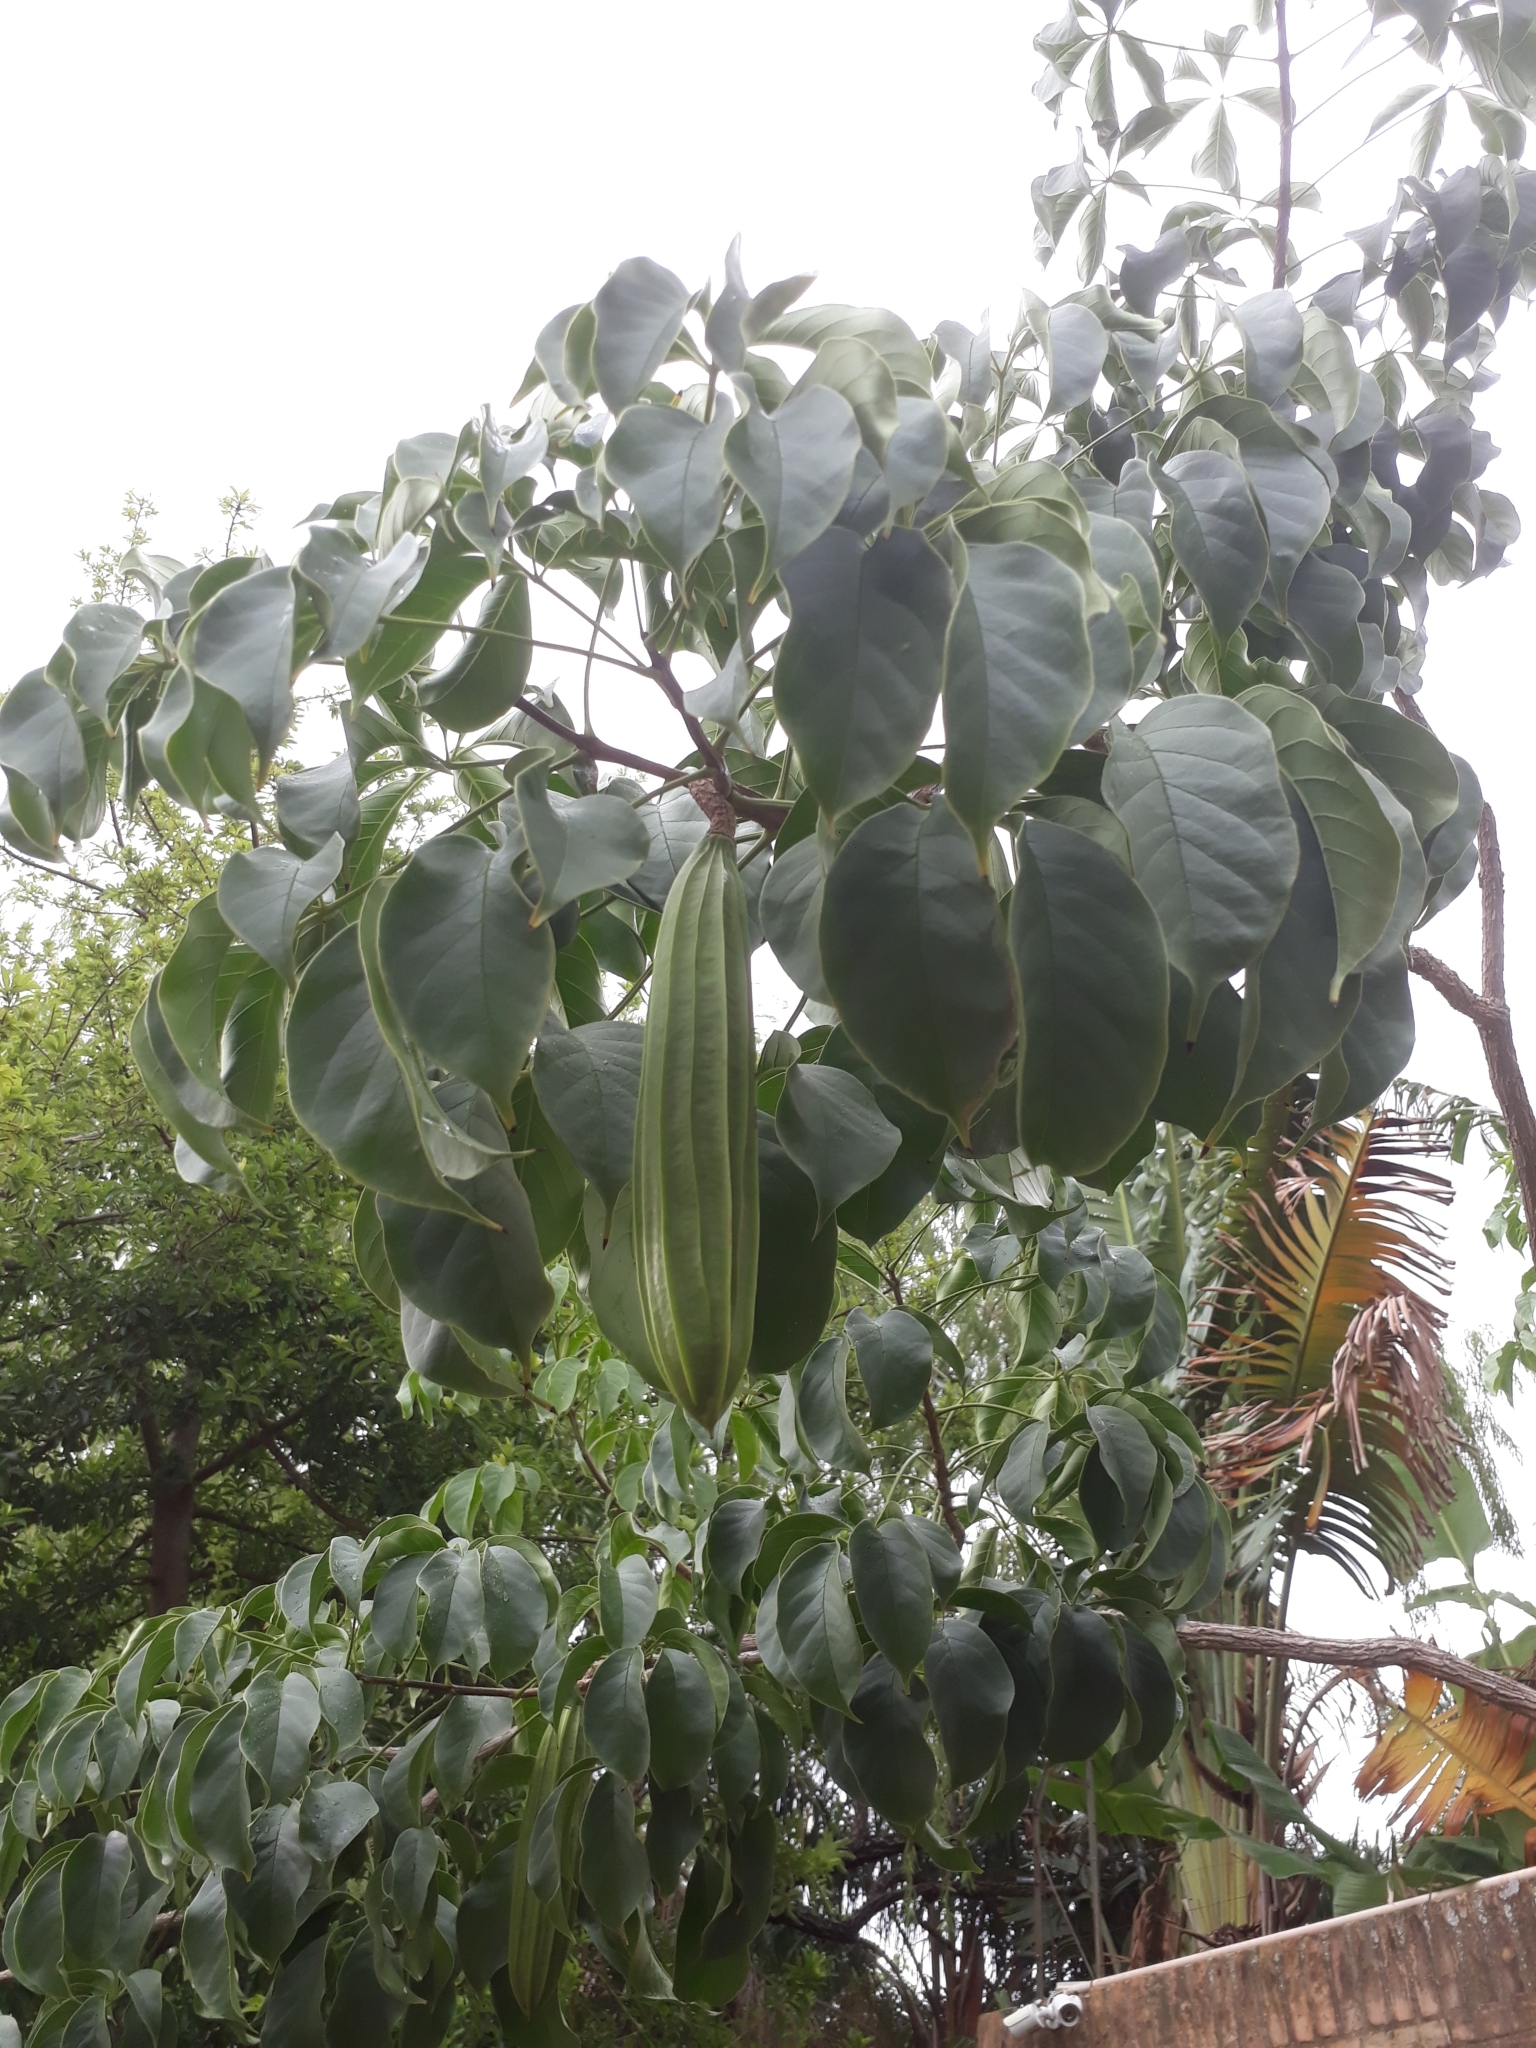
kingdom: Plantae
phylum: Tracheophyta
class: Magnoliopsida
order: Lamiales
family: Bignoniaceae
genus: Cybistax
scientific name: Cybistax antisyphilitica
